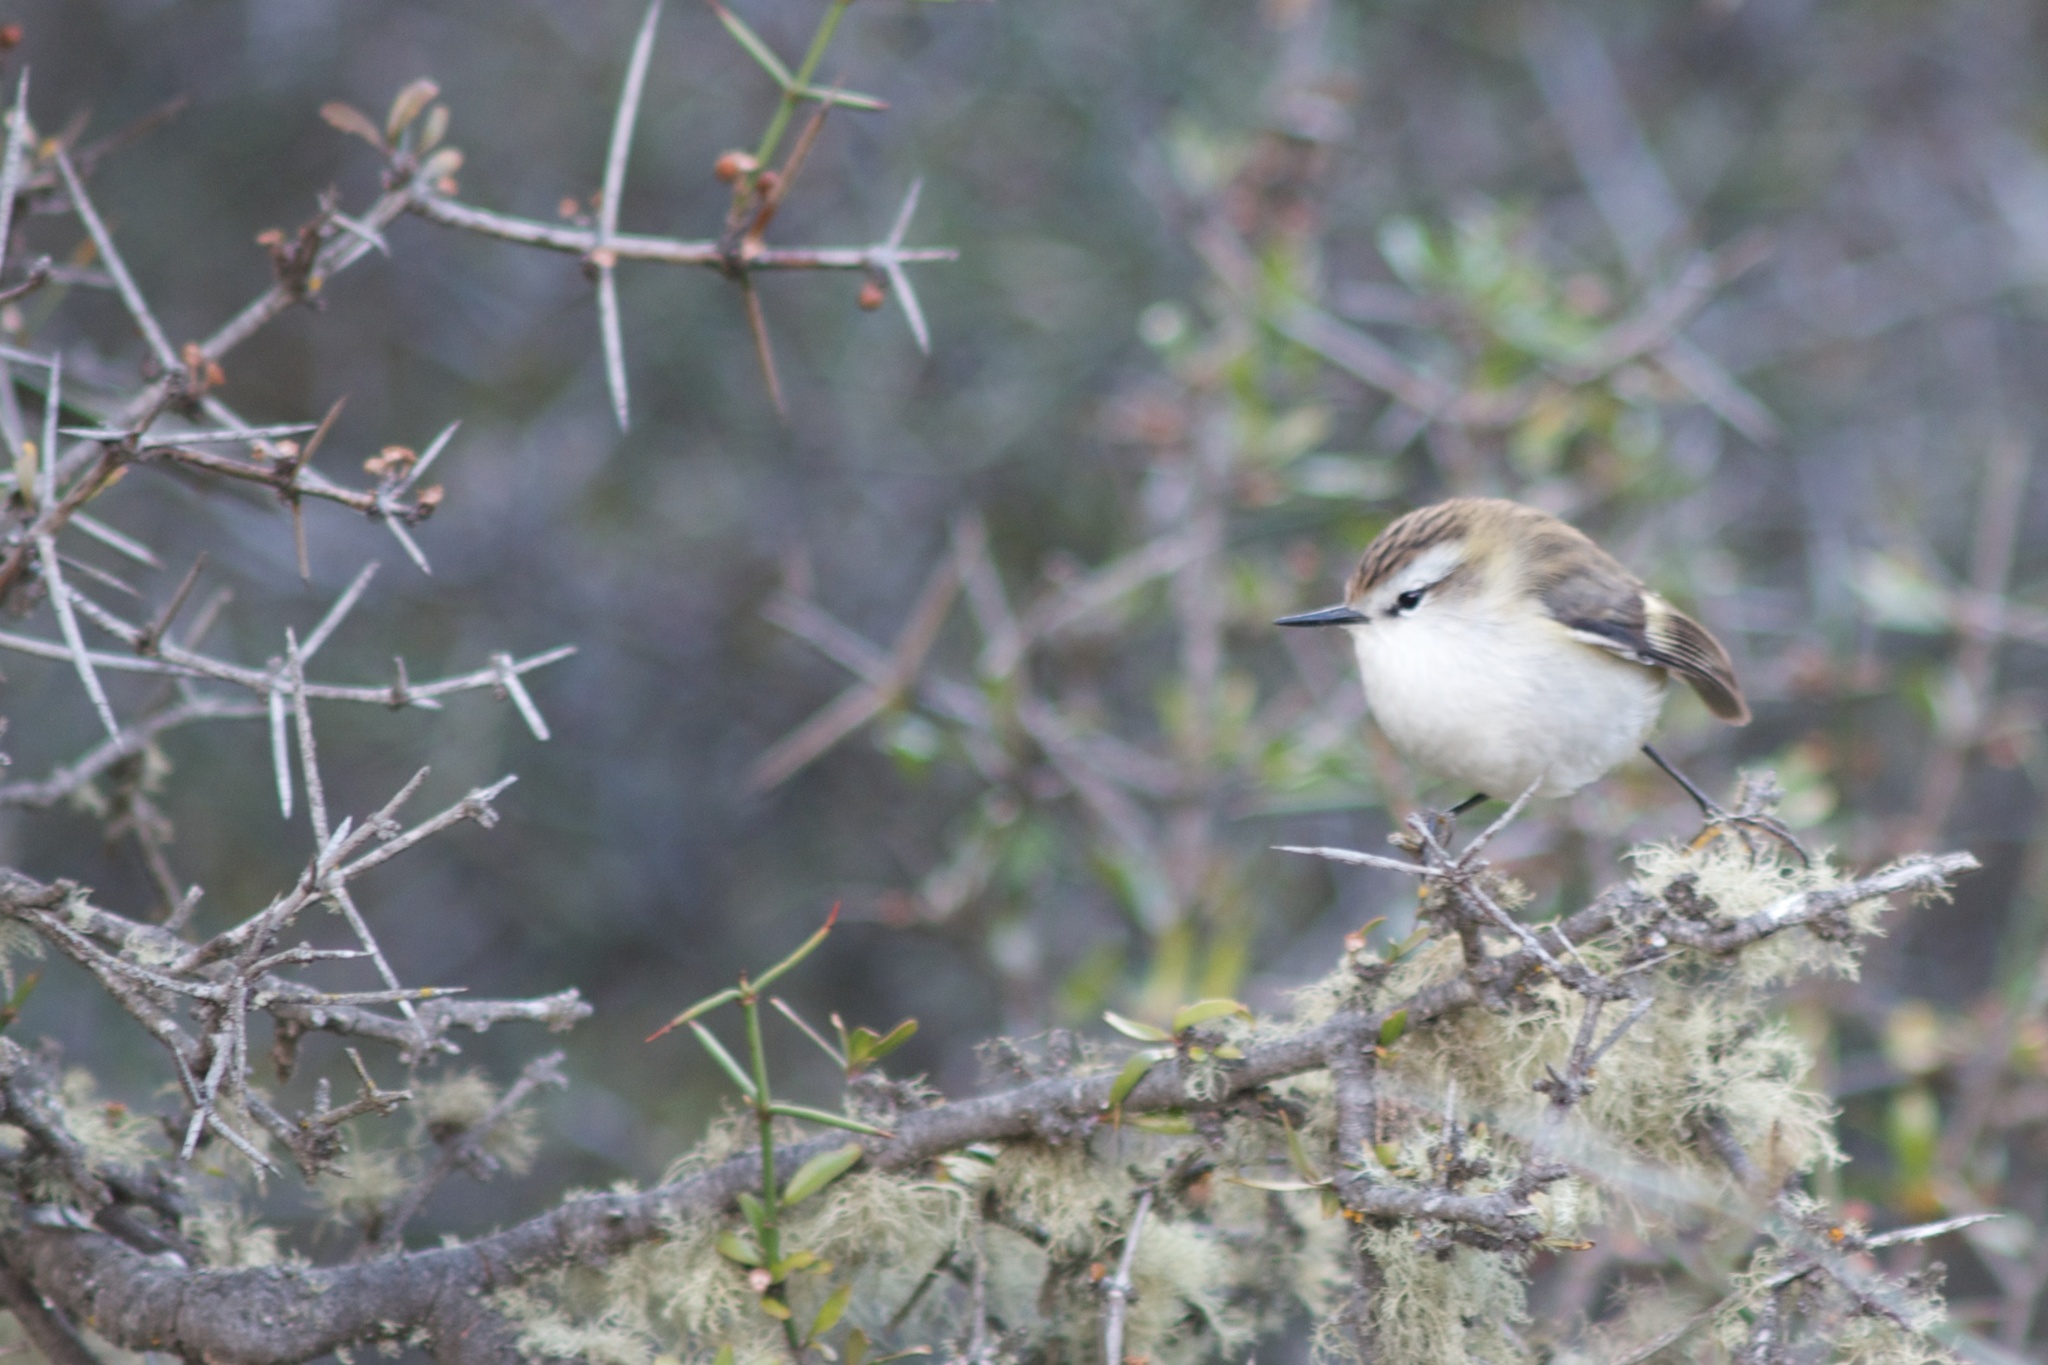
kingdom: Animalia
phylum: Chordata
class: Aves
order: Passeriformes
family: Acanthisittidae
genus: Acanthisitta
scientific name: Acanthisitta chloris
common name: Rifleman
